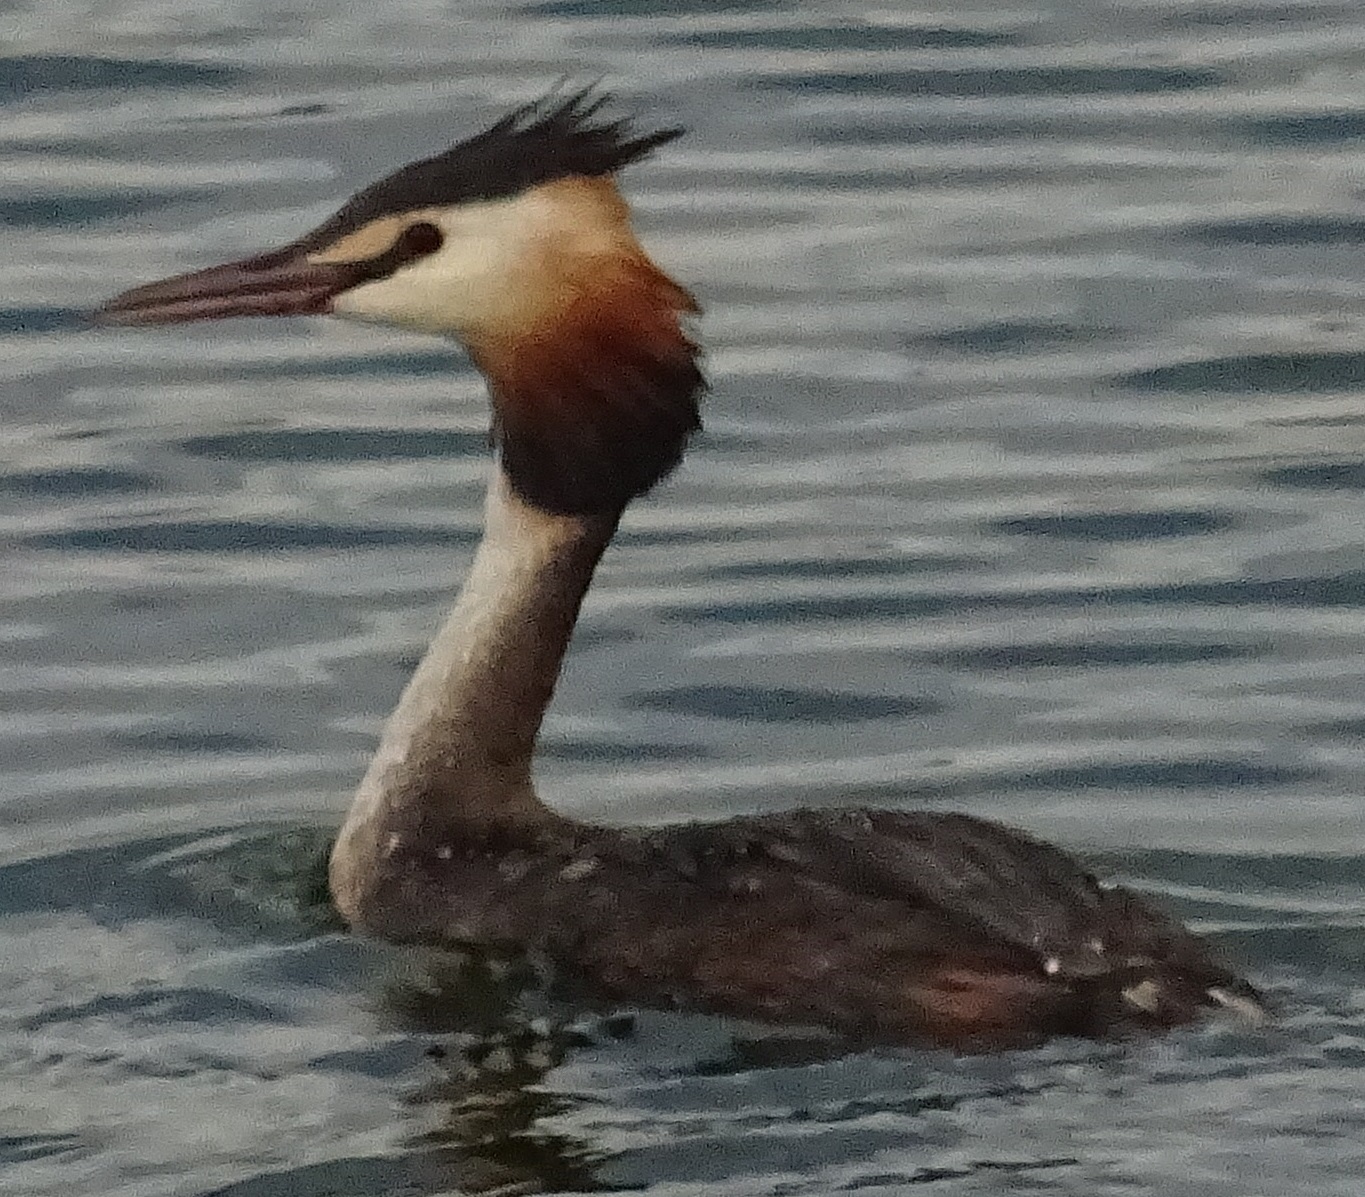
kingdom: Animalia
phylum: Chordata
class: Aves
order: Podicipediformes
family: Podicipedidae
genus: Podiceps
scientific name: Podiceps cristatus
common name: Great crested grebe
